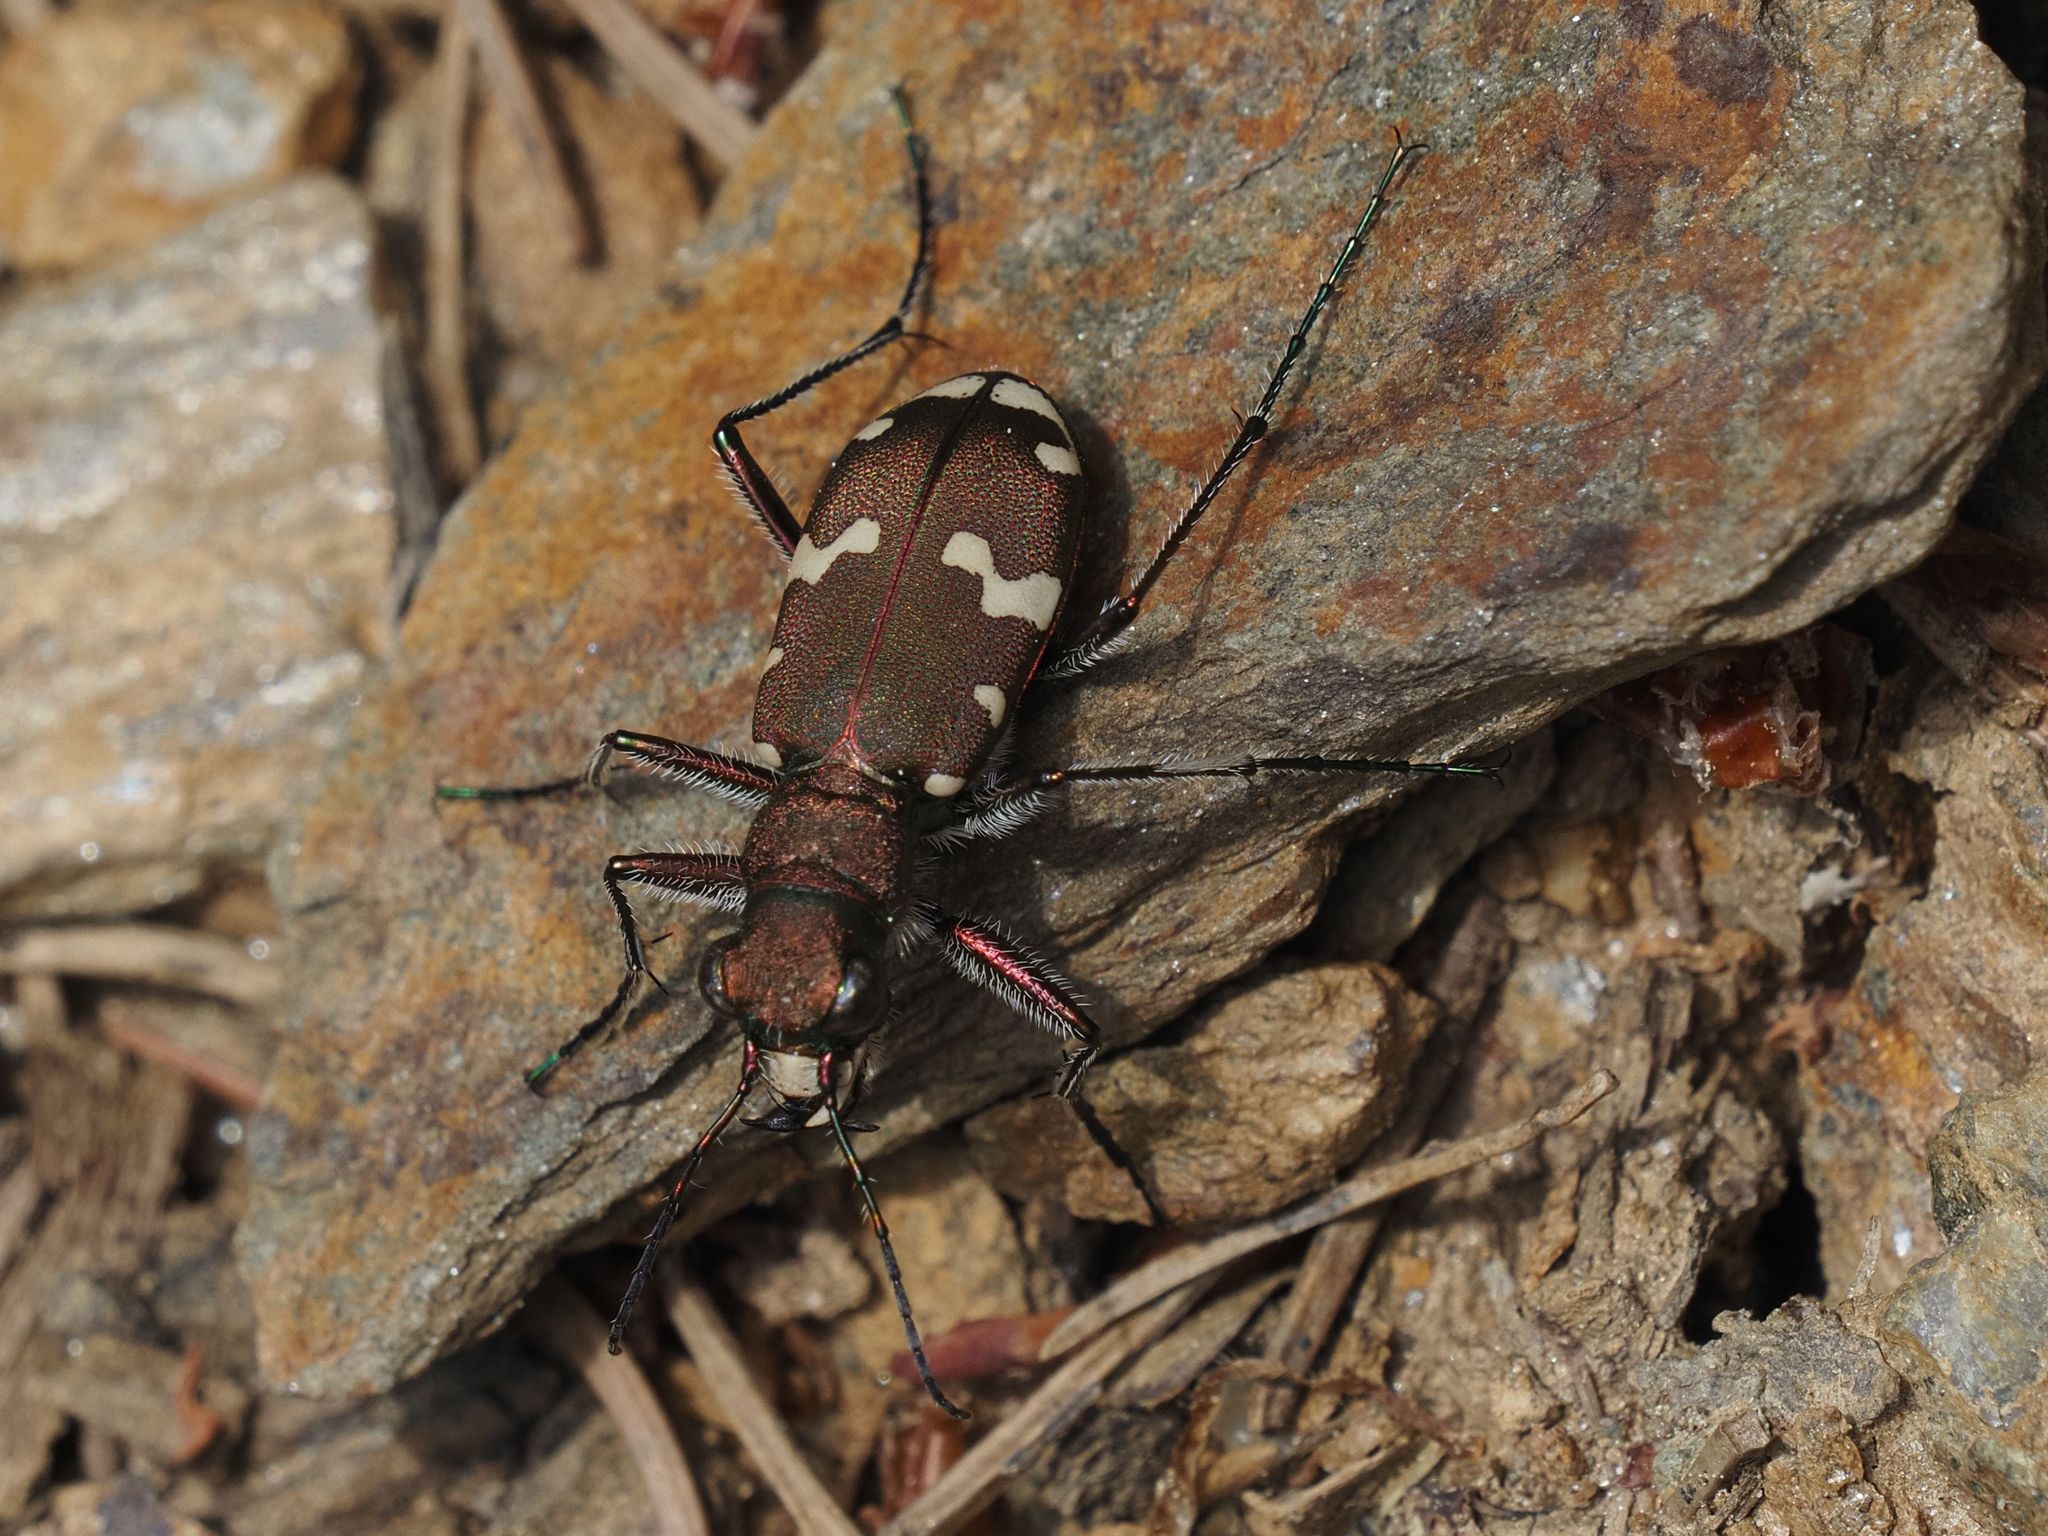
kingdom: Animalia
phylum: Arthropoda
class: Insecta
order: Coleoptera
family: Carabidae
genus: Cicindela
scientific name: Cicindela sylvicola
